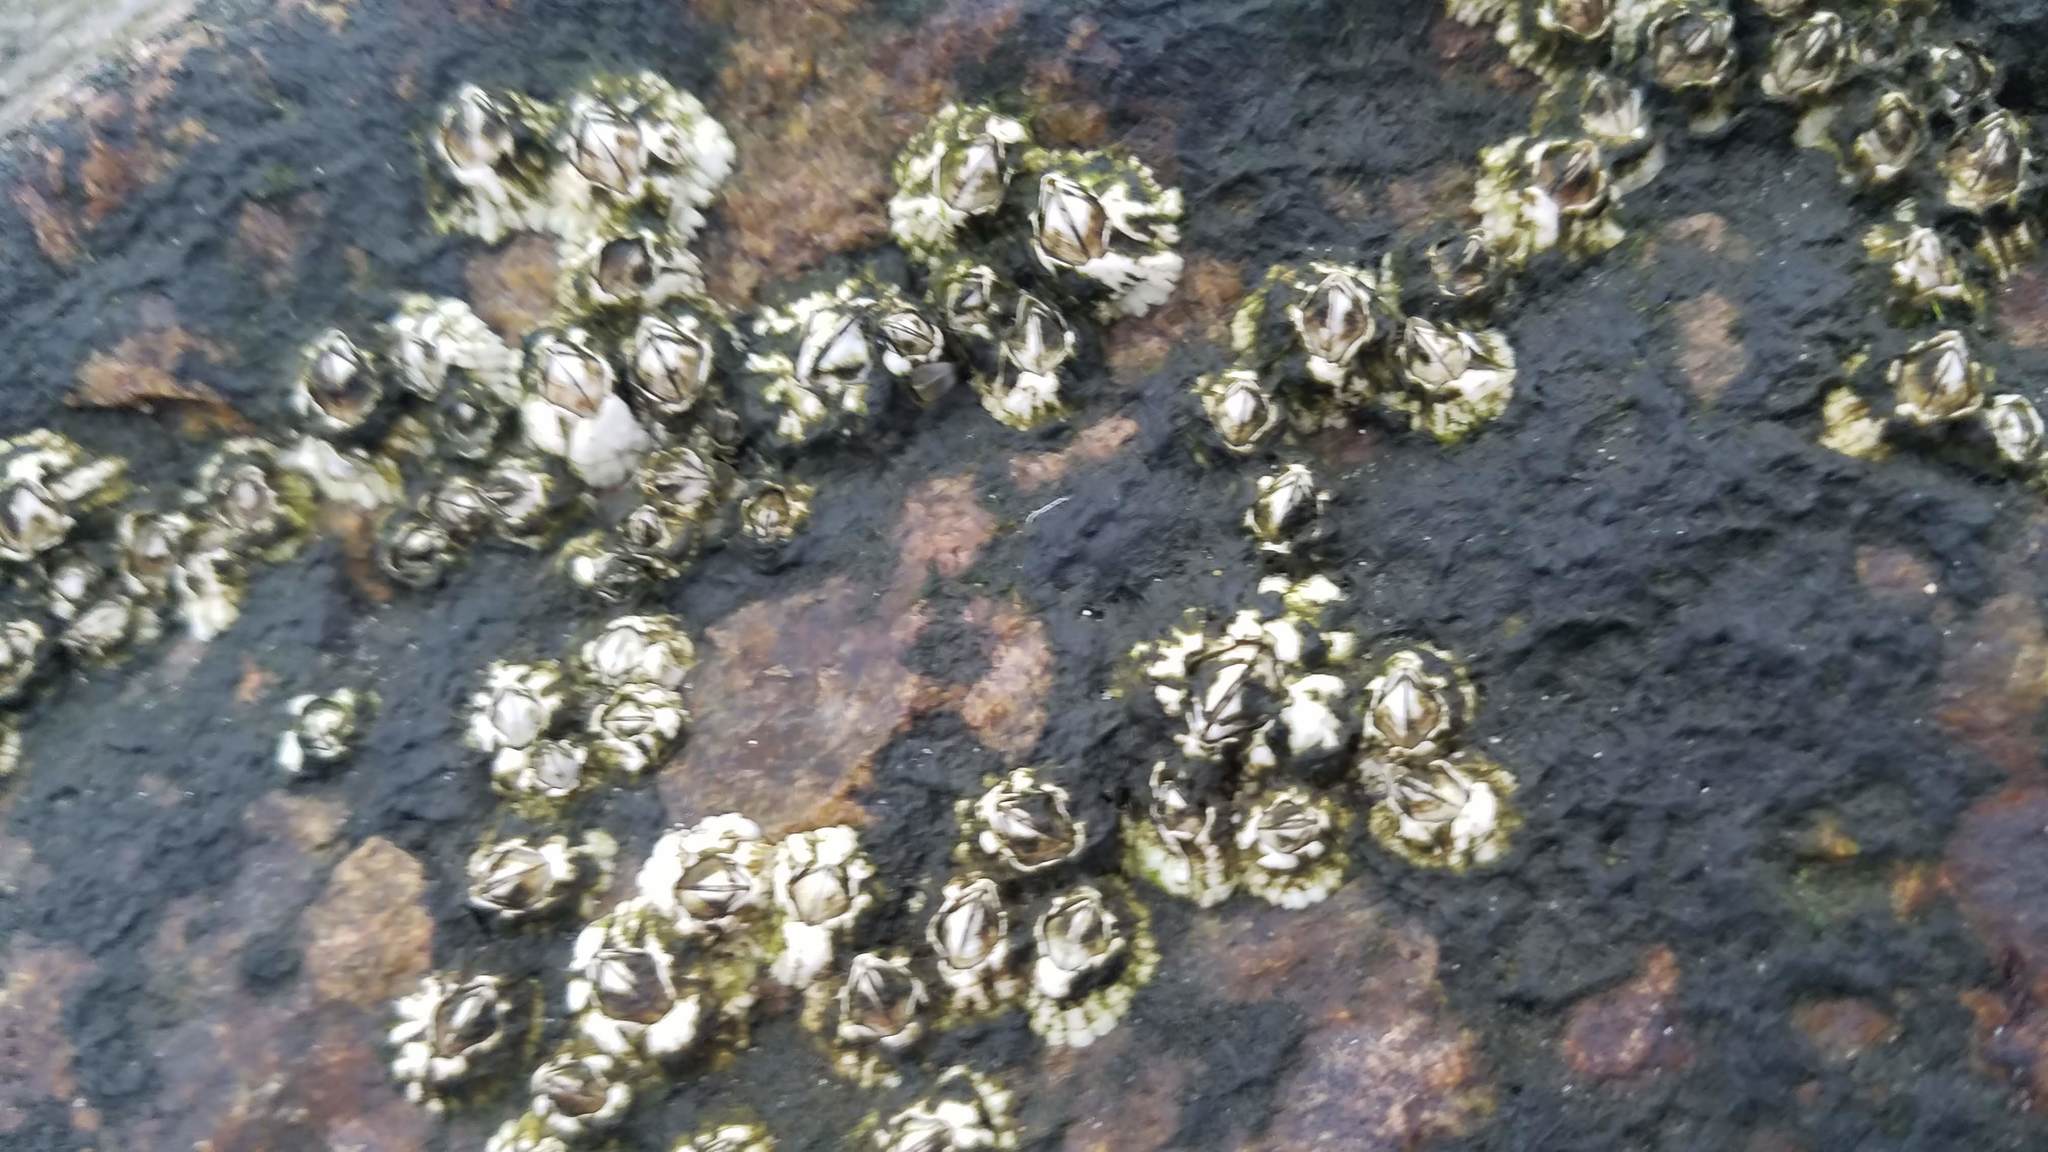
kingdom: Animalia
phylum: Arthropoda
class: Maxillopoda
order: Sessilia
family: Archaeobalanidae
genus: Semibalanus
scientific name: Semibalanus balanoides
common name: Acorn barnacle
